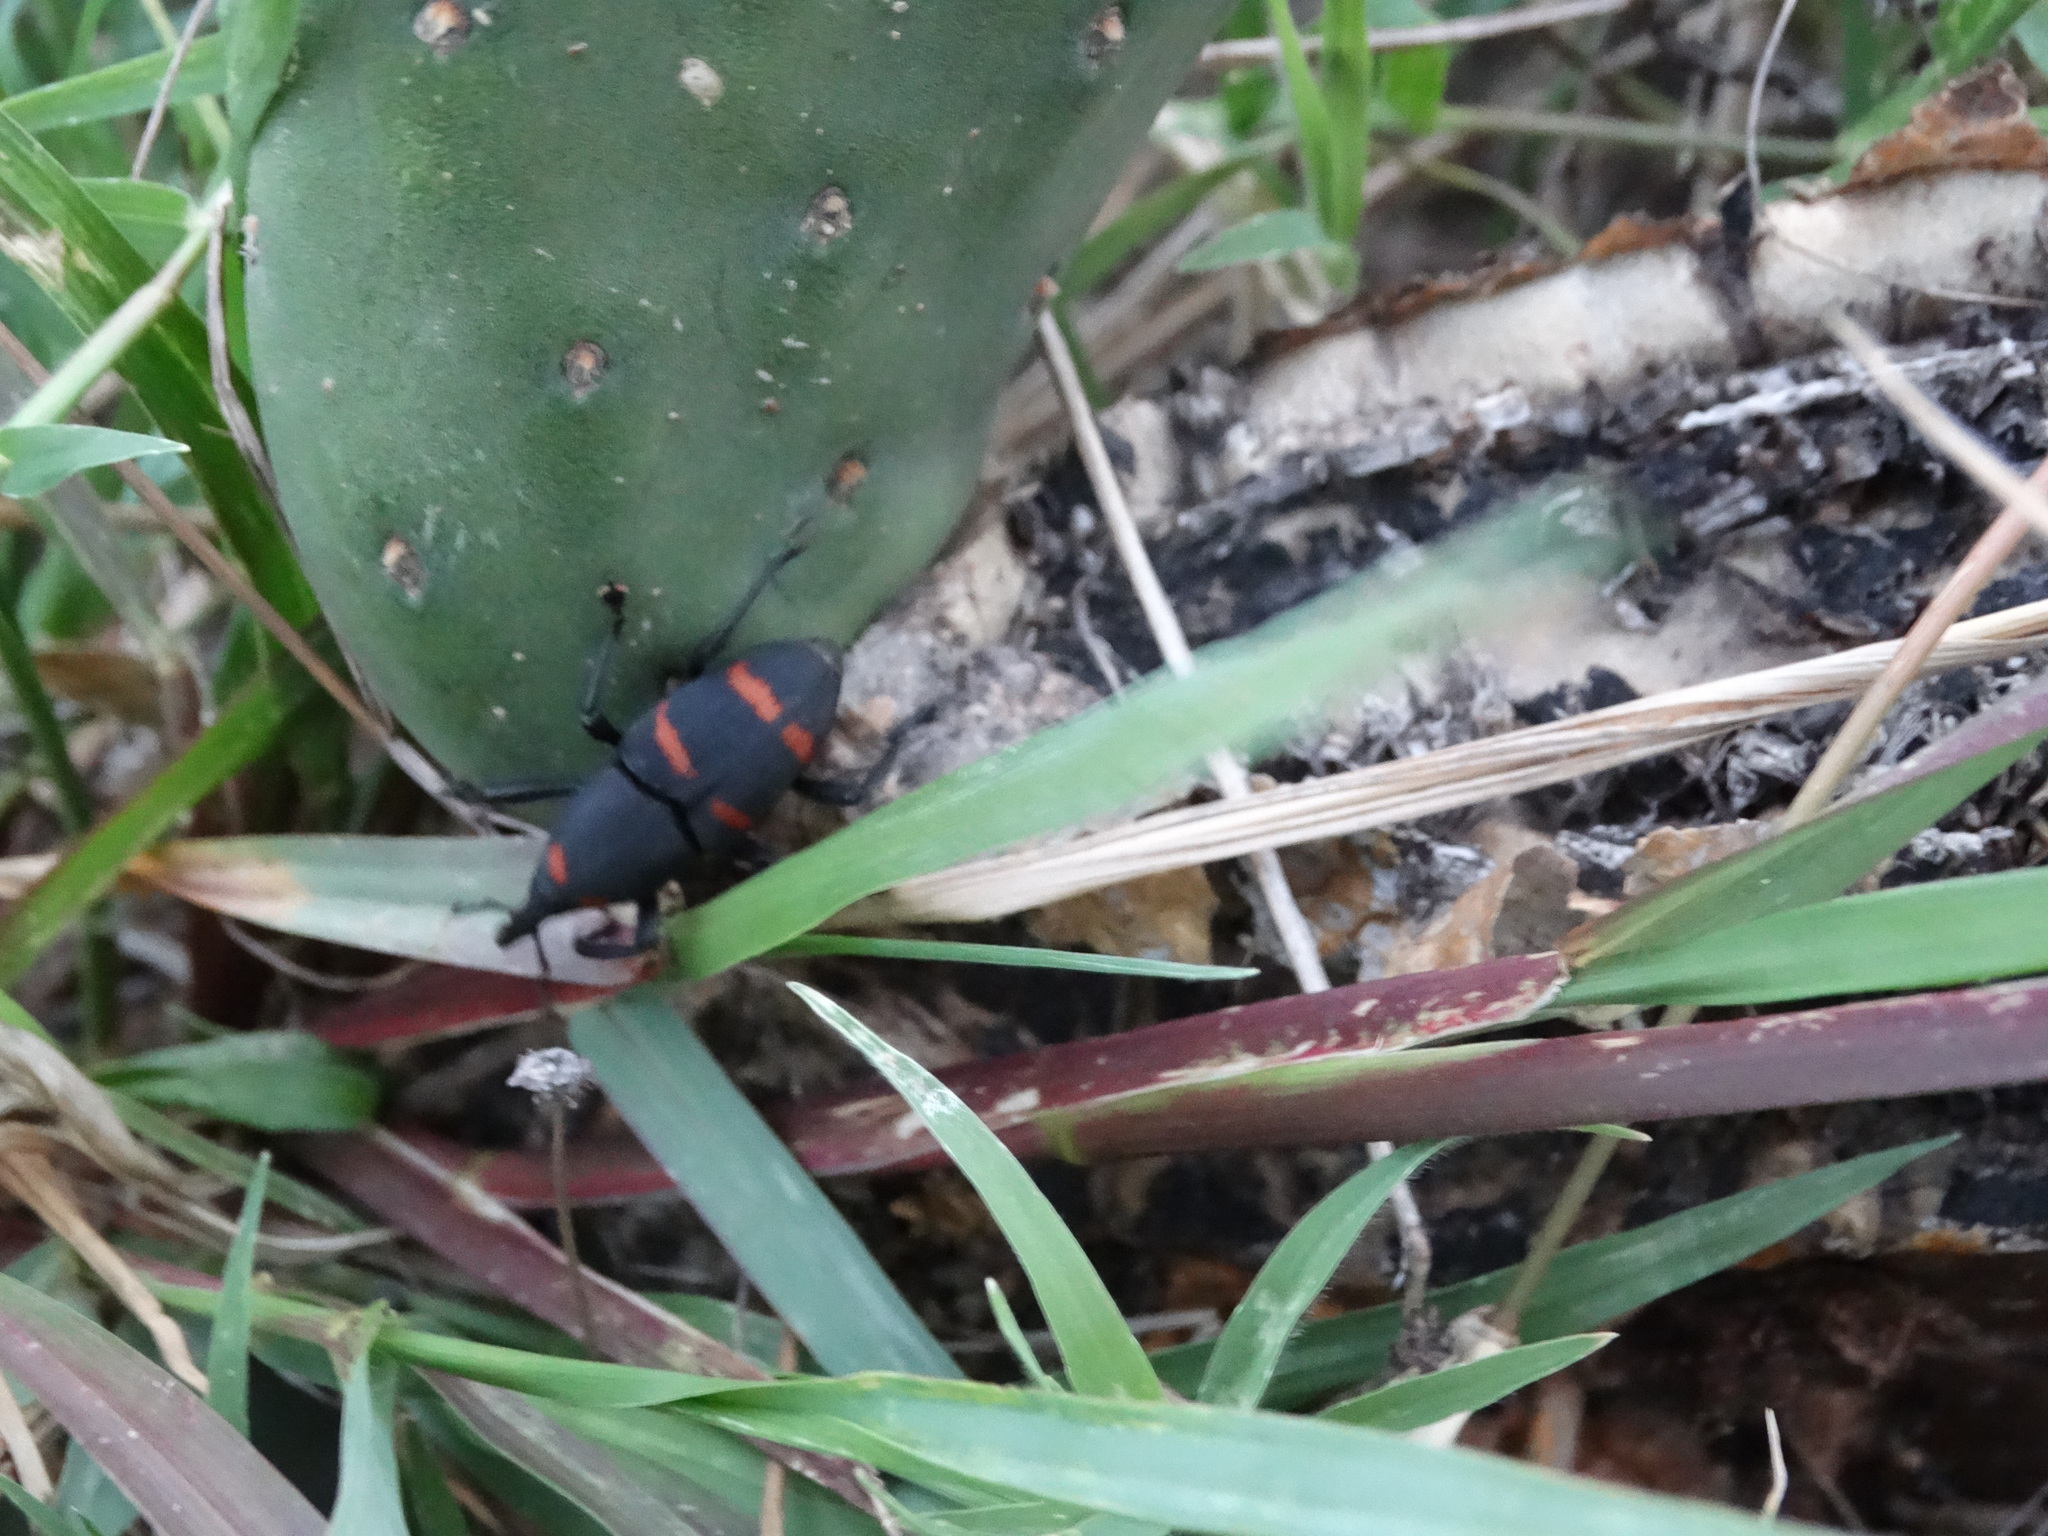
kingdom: Animalia
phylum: Arthropoda
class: Insecta
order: Coleoptera
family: Dryophthoridae
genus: Cactophagus
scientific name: Cactophagus spinolae
